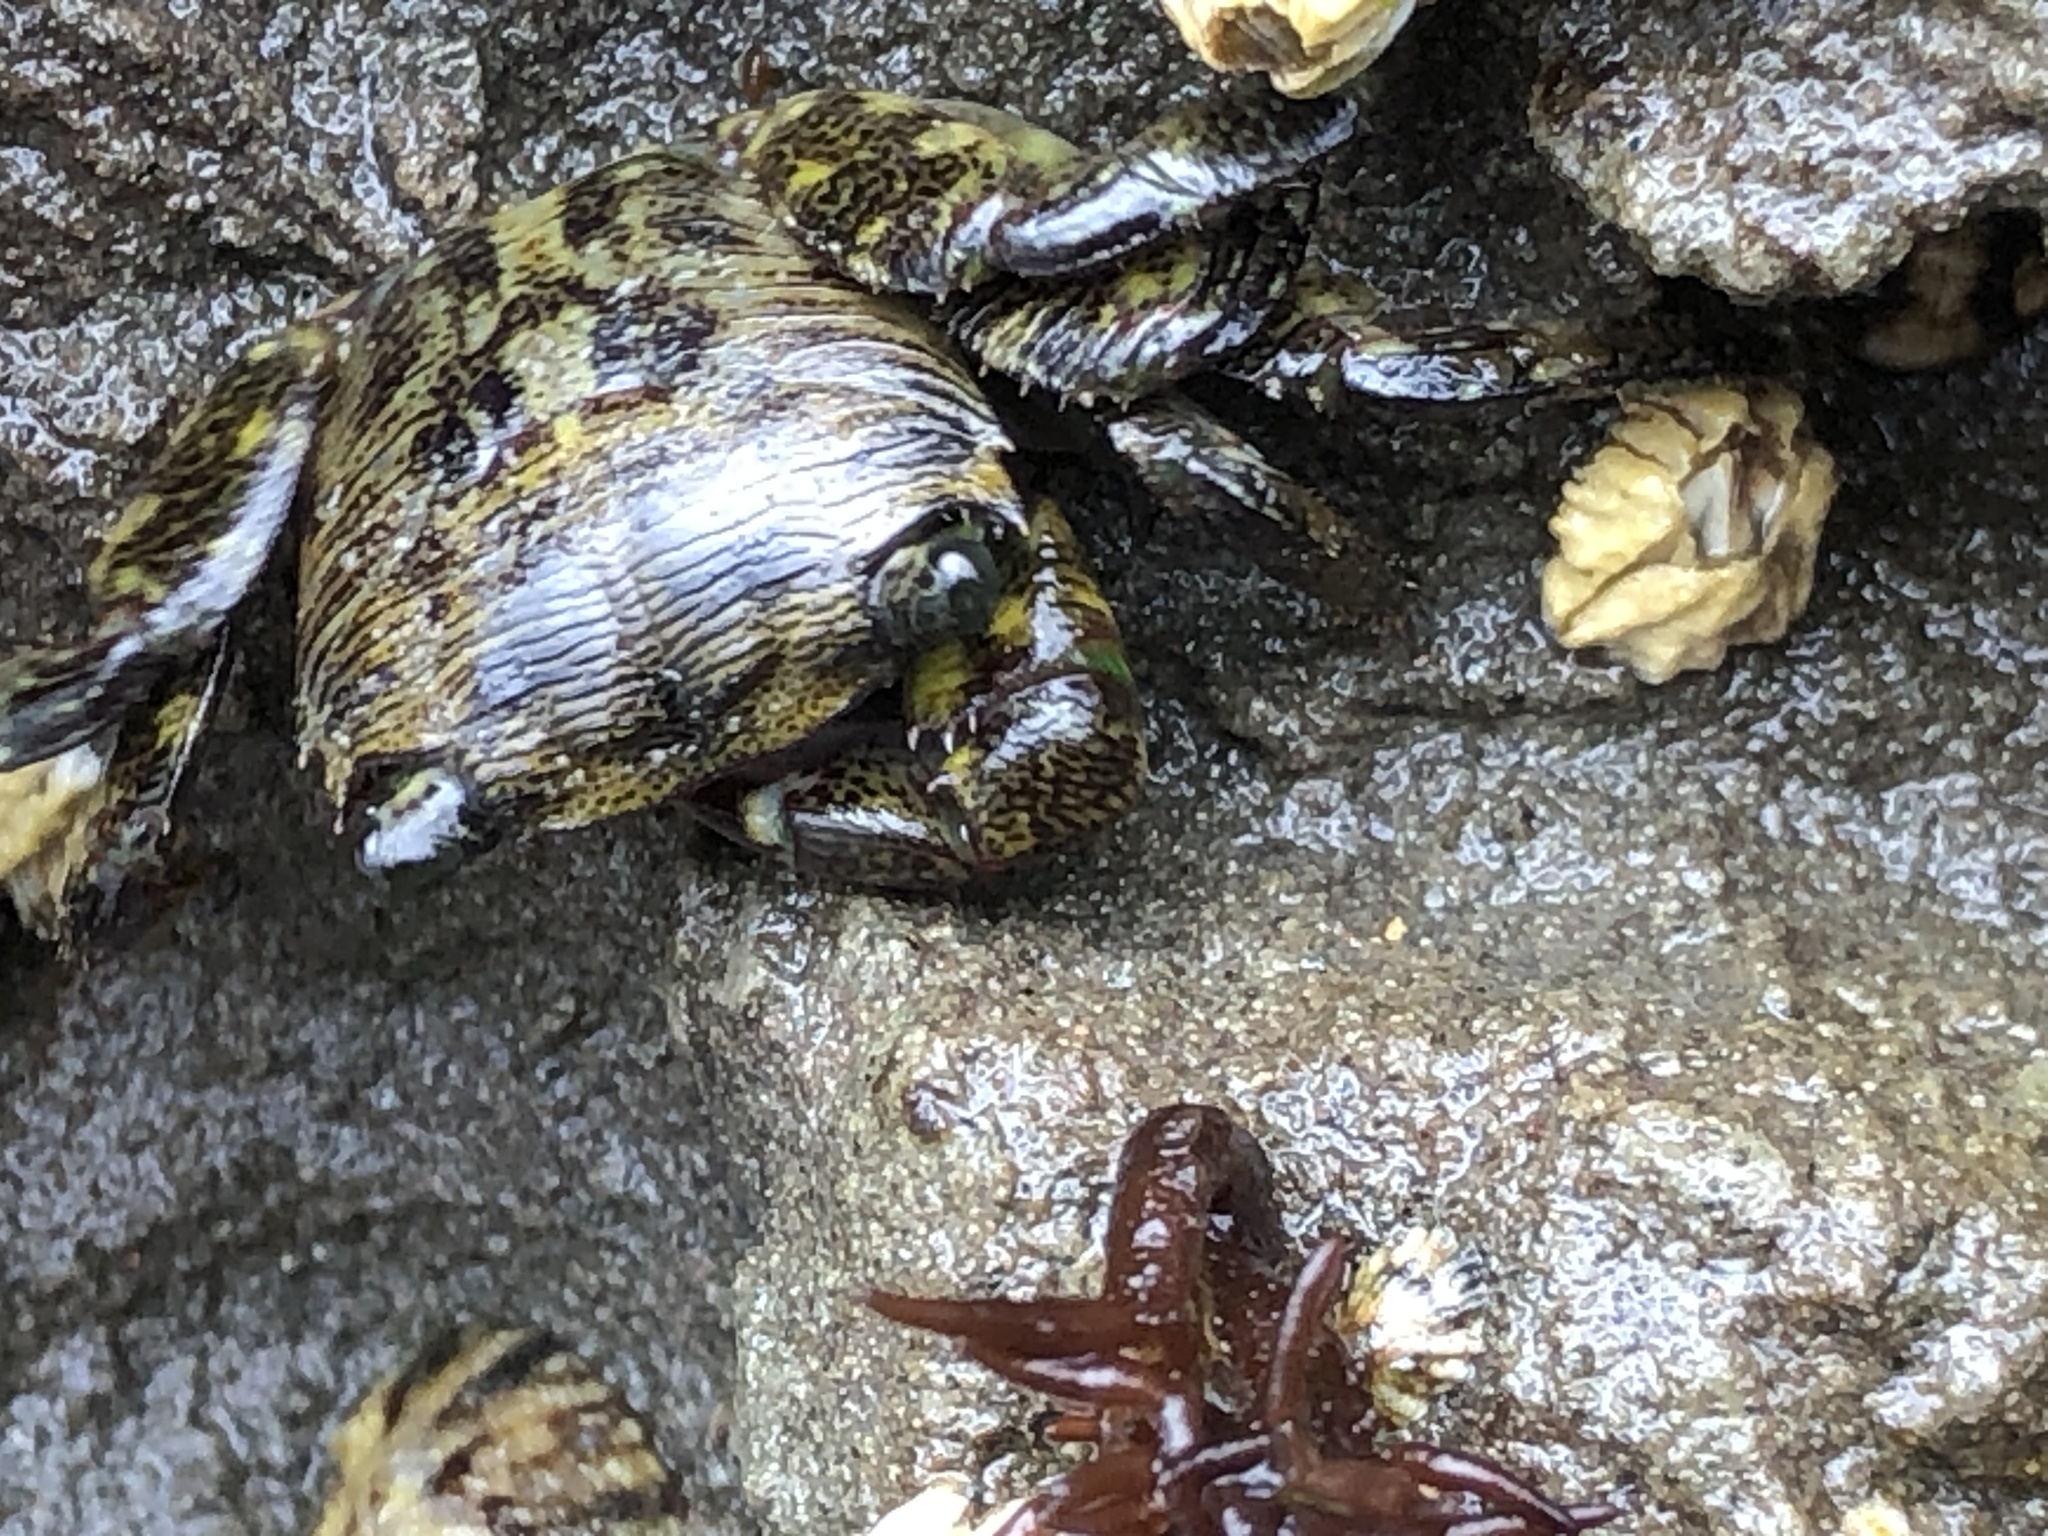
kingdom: Animalia
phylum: Arthropoda
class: Malacostraca
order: Decapoda
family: Grapsidae
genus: Pachygrapsus
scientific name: Pachygrapsus crassipes
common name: Striped shore crab
